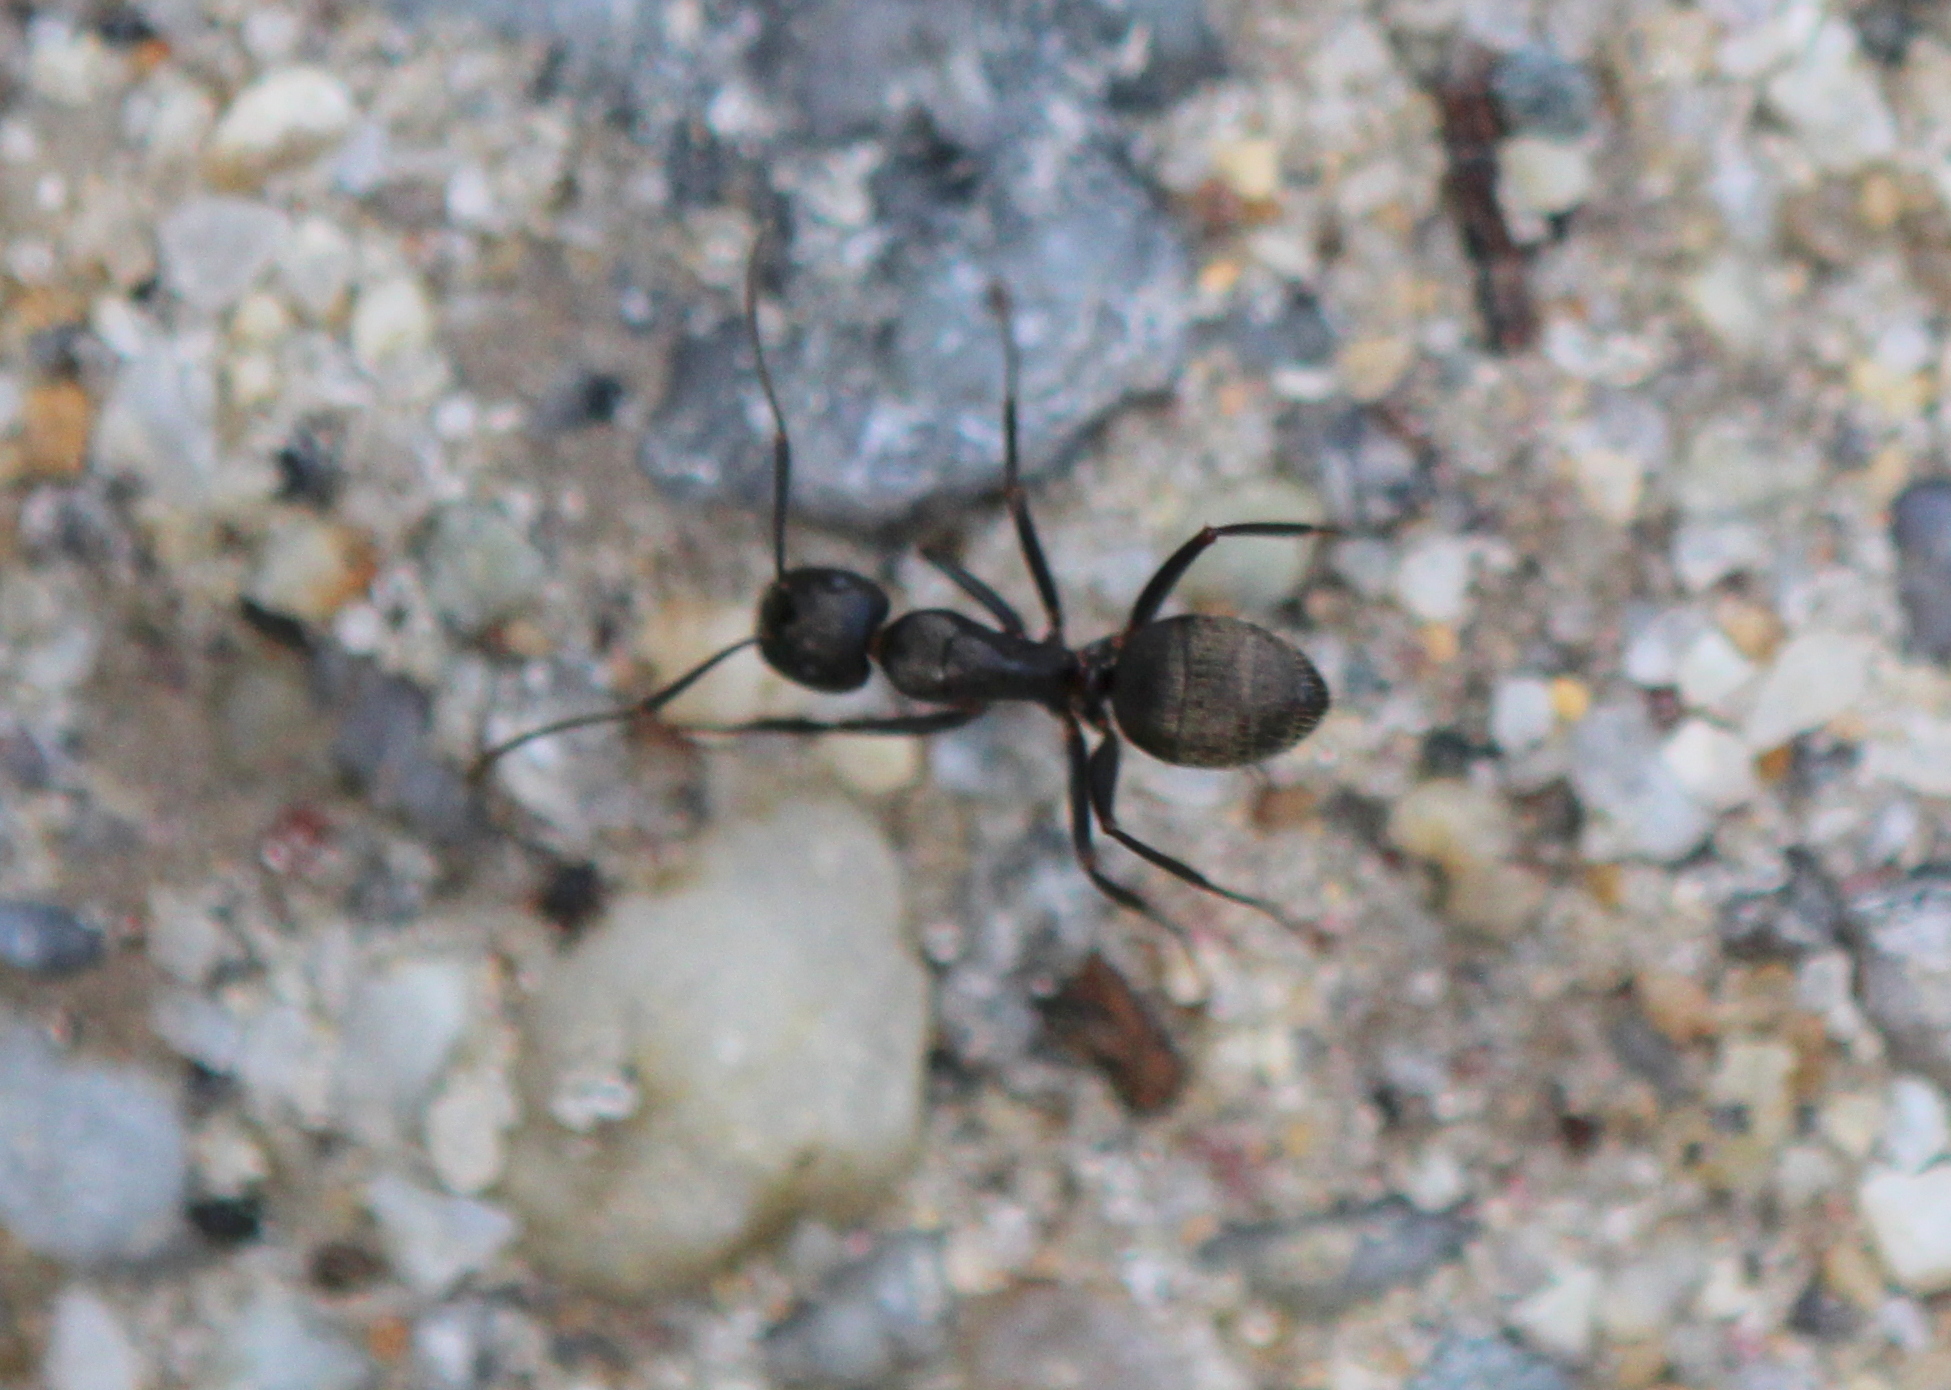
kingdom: Animalia
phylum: Arthropoda
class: Insecta
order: Hymenoptera
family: Formicidae
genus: Camponotus
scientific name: Camponotus pennsylvanicus
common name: Black carpenter ant
